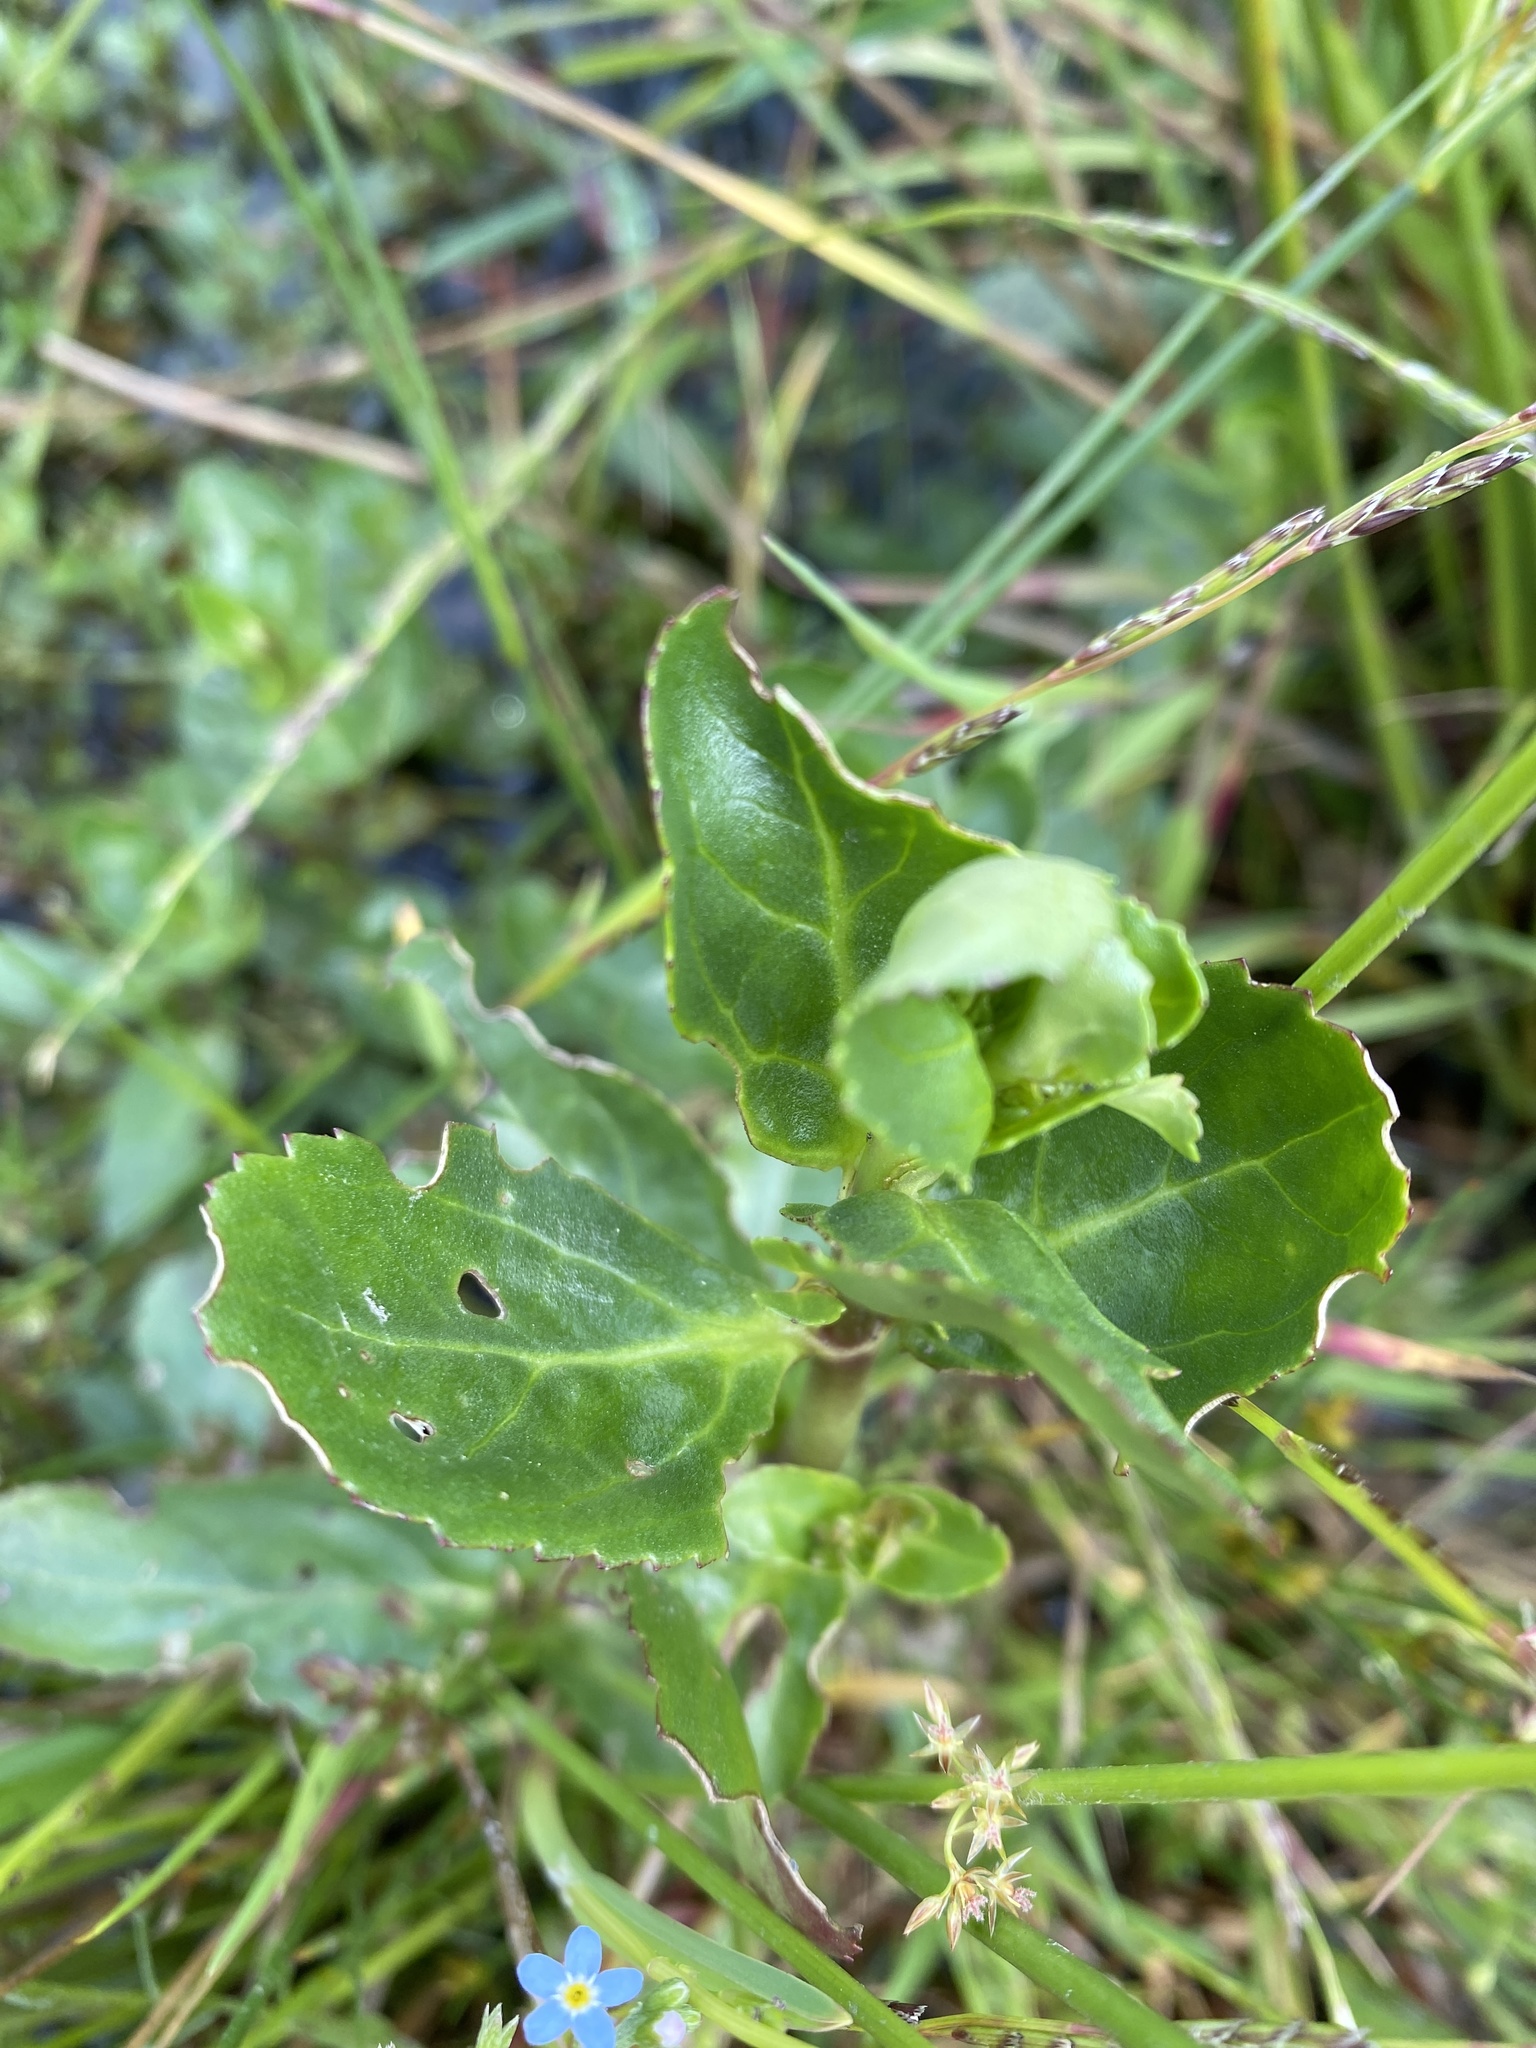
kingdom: Plantae
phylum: Tracheophyta
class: Magnoliopsida
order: Lamiales
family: Plantaginaceae
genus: Veronica
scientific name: Veronica beccabunga
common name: Brooklime
